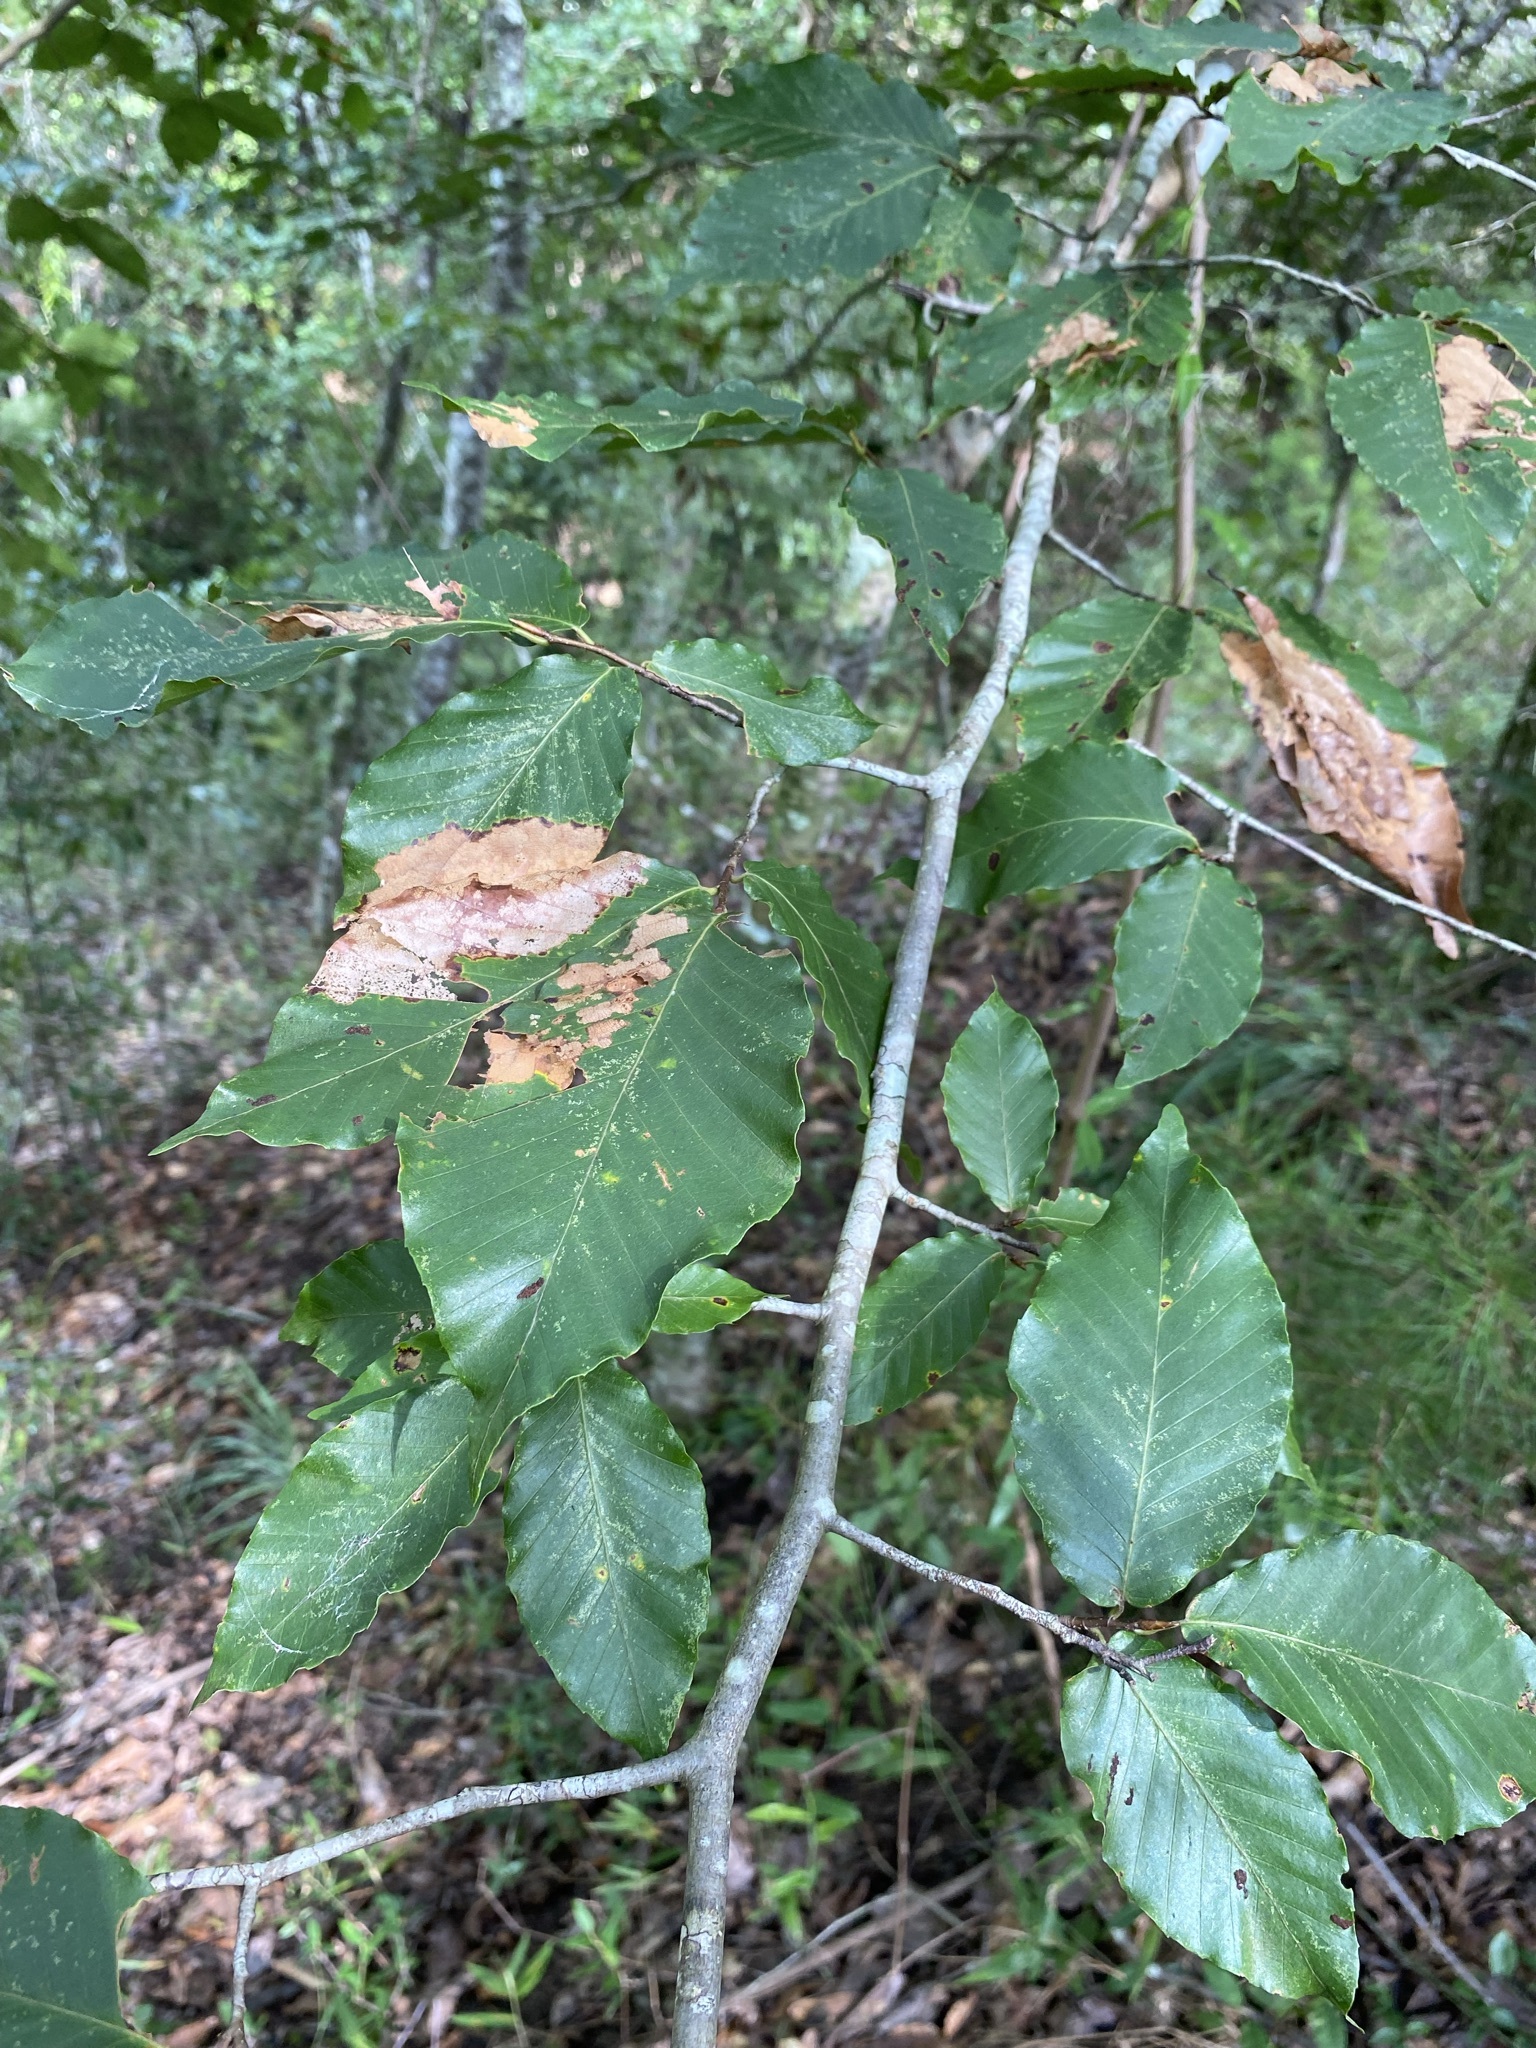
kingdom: Plantae
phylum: Tracheophyta
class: Magnoliopsida
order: Fagales
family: Fagaceae
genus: Fagus
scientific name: Fagus grandifolia
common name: American beech
